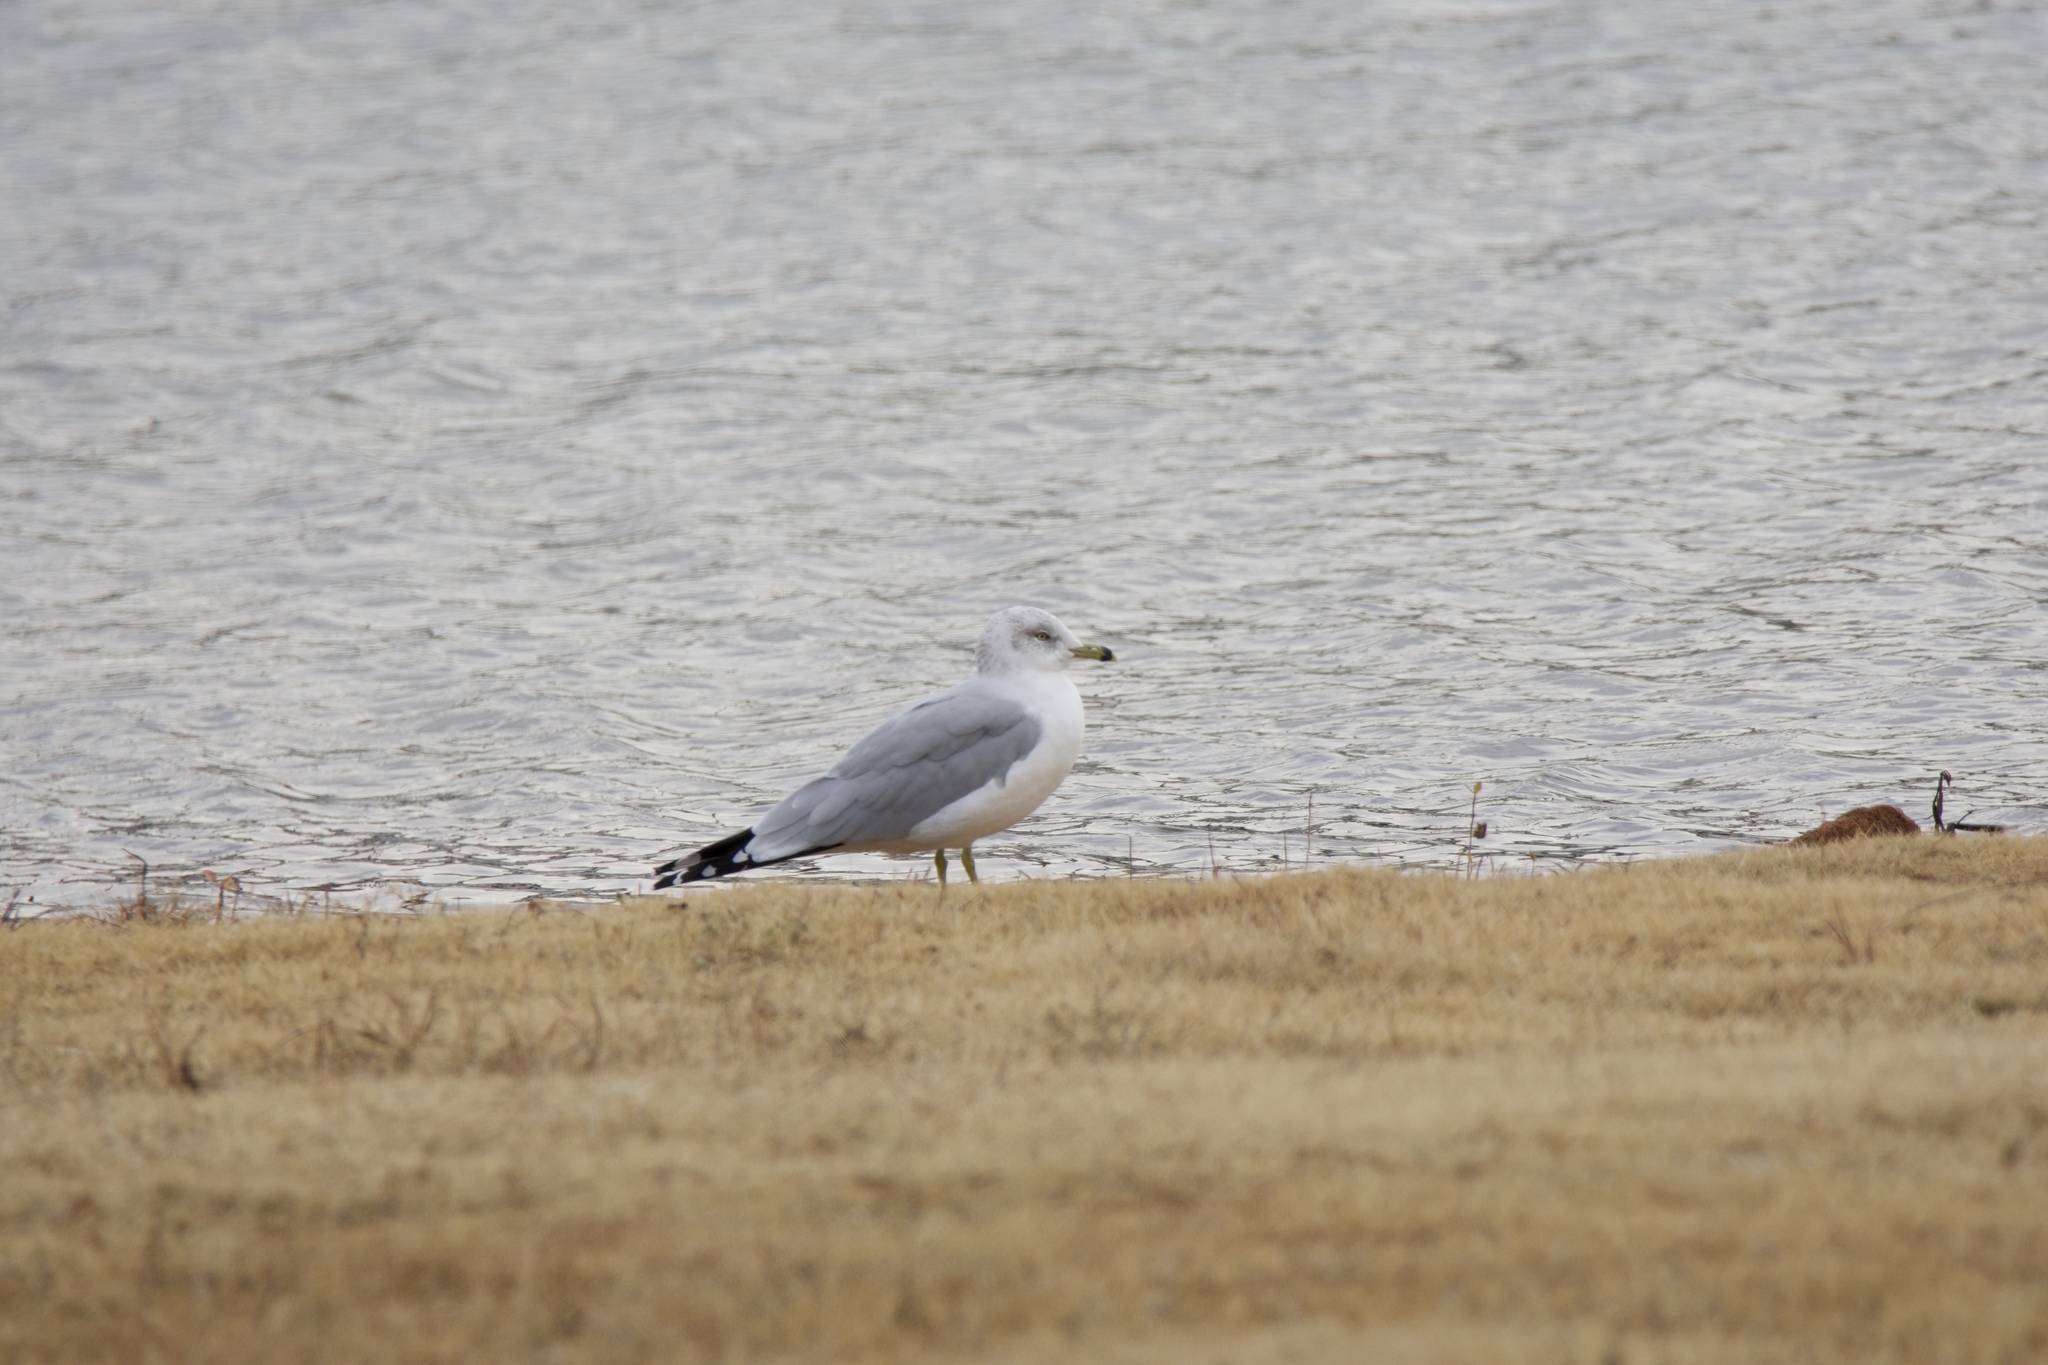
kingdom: Animalia
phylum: Chordata
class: Aves
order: Charadriiformes
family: Laridae
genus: Larus
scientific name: Larus delawarensis
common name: Ring-billed gull
